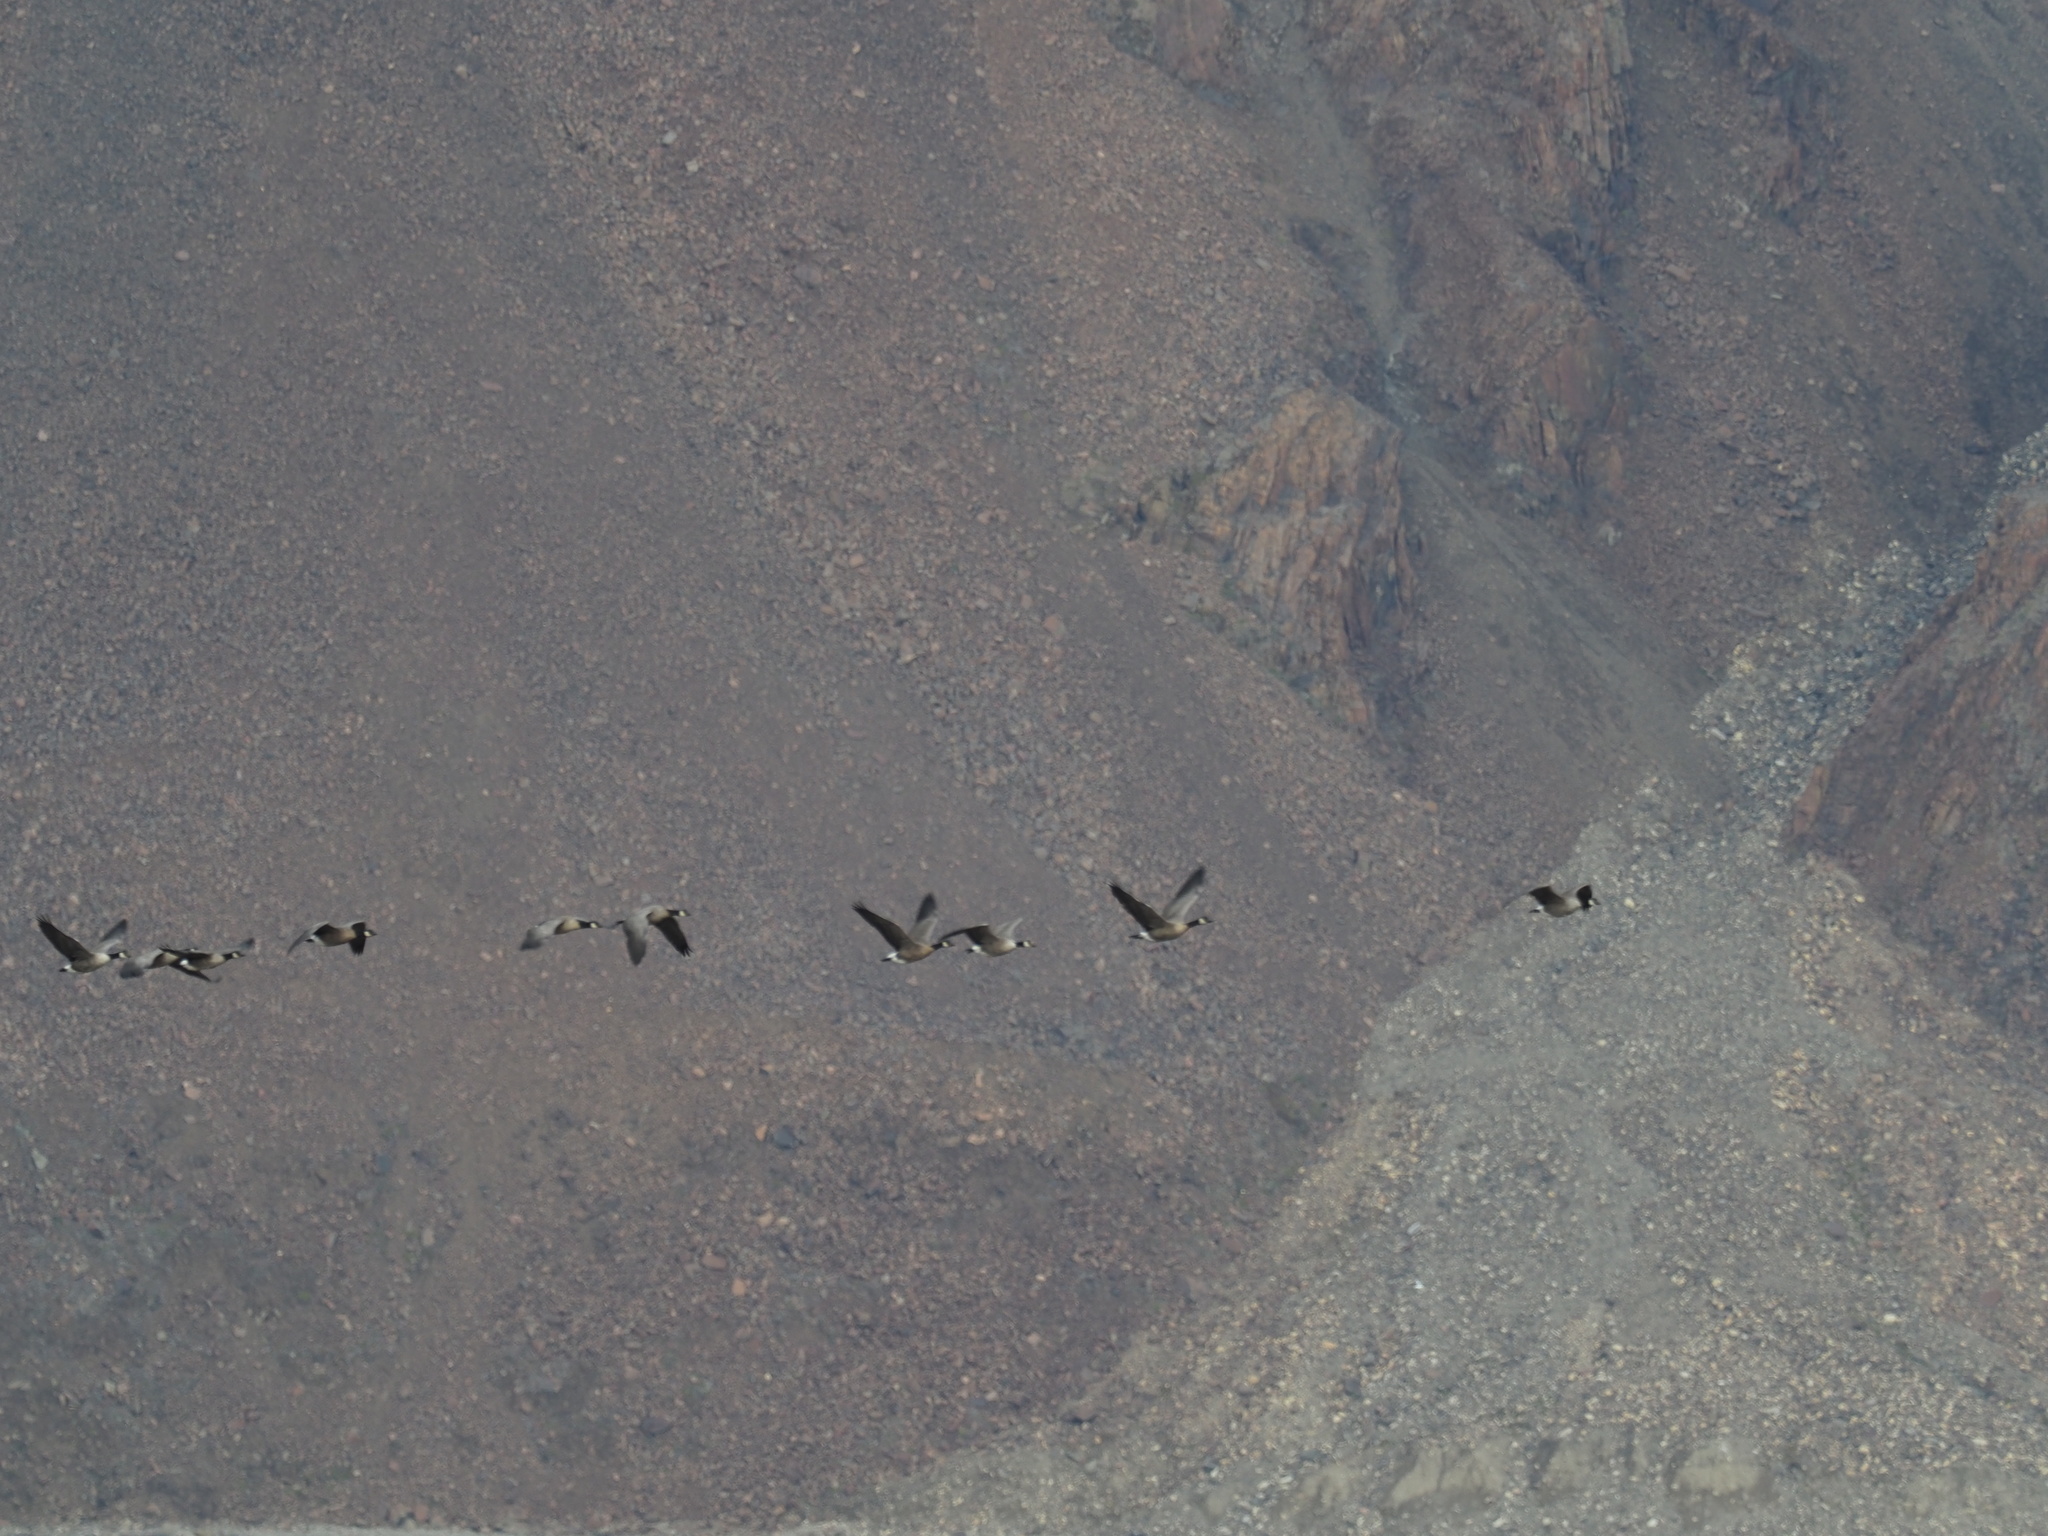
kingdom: Animalia
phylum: Chordata
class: Aves
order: Anseriformes
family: Anatidae
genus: Branta
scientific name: Branta hutchinsii
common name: Cackling goose
